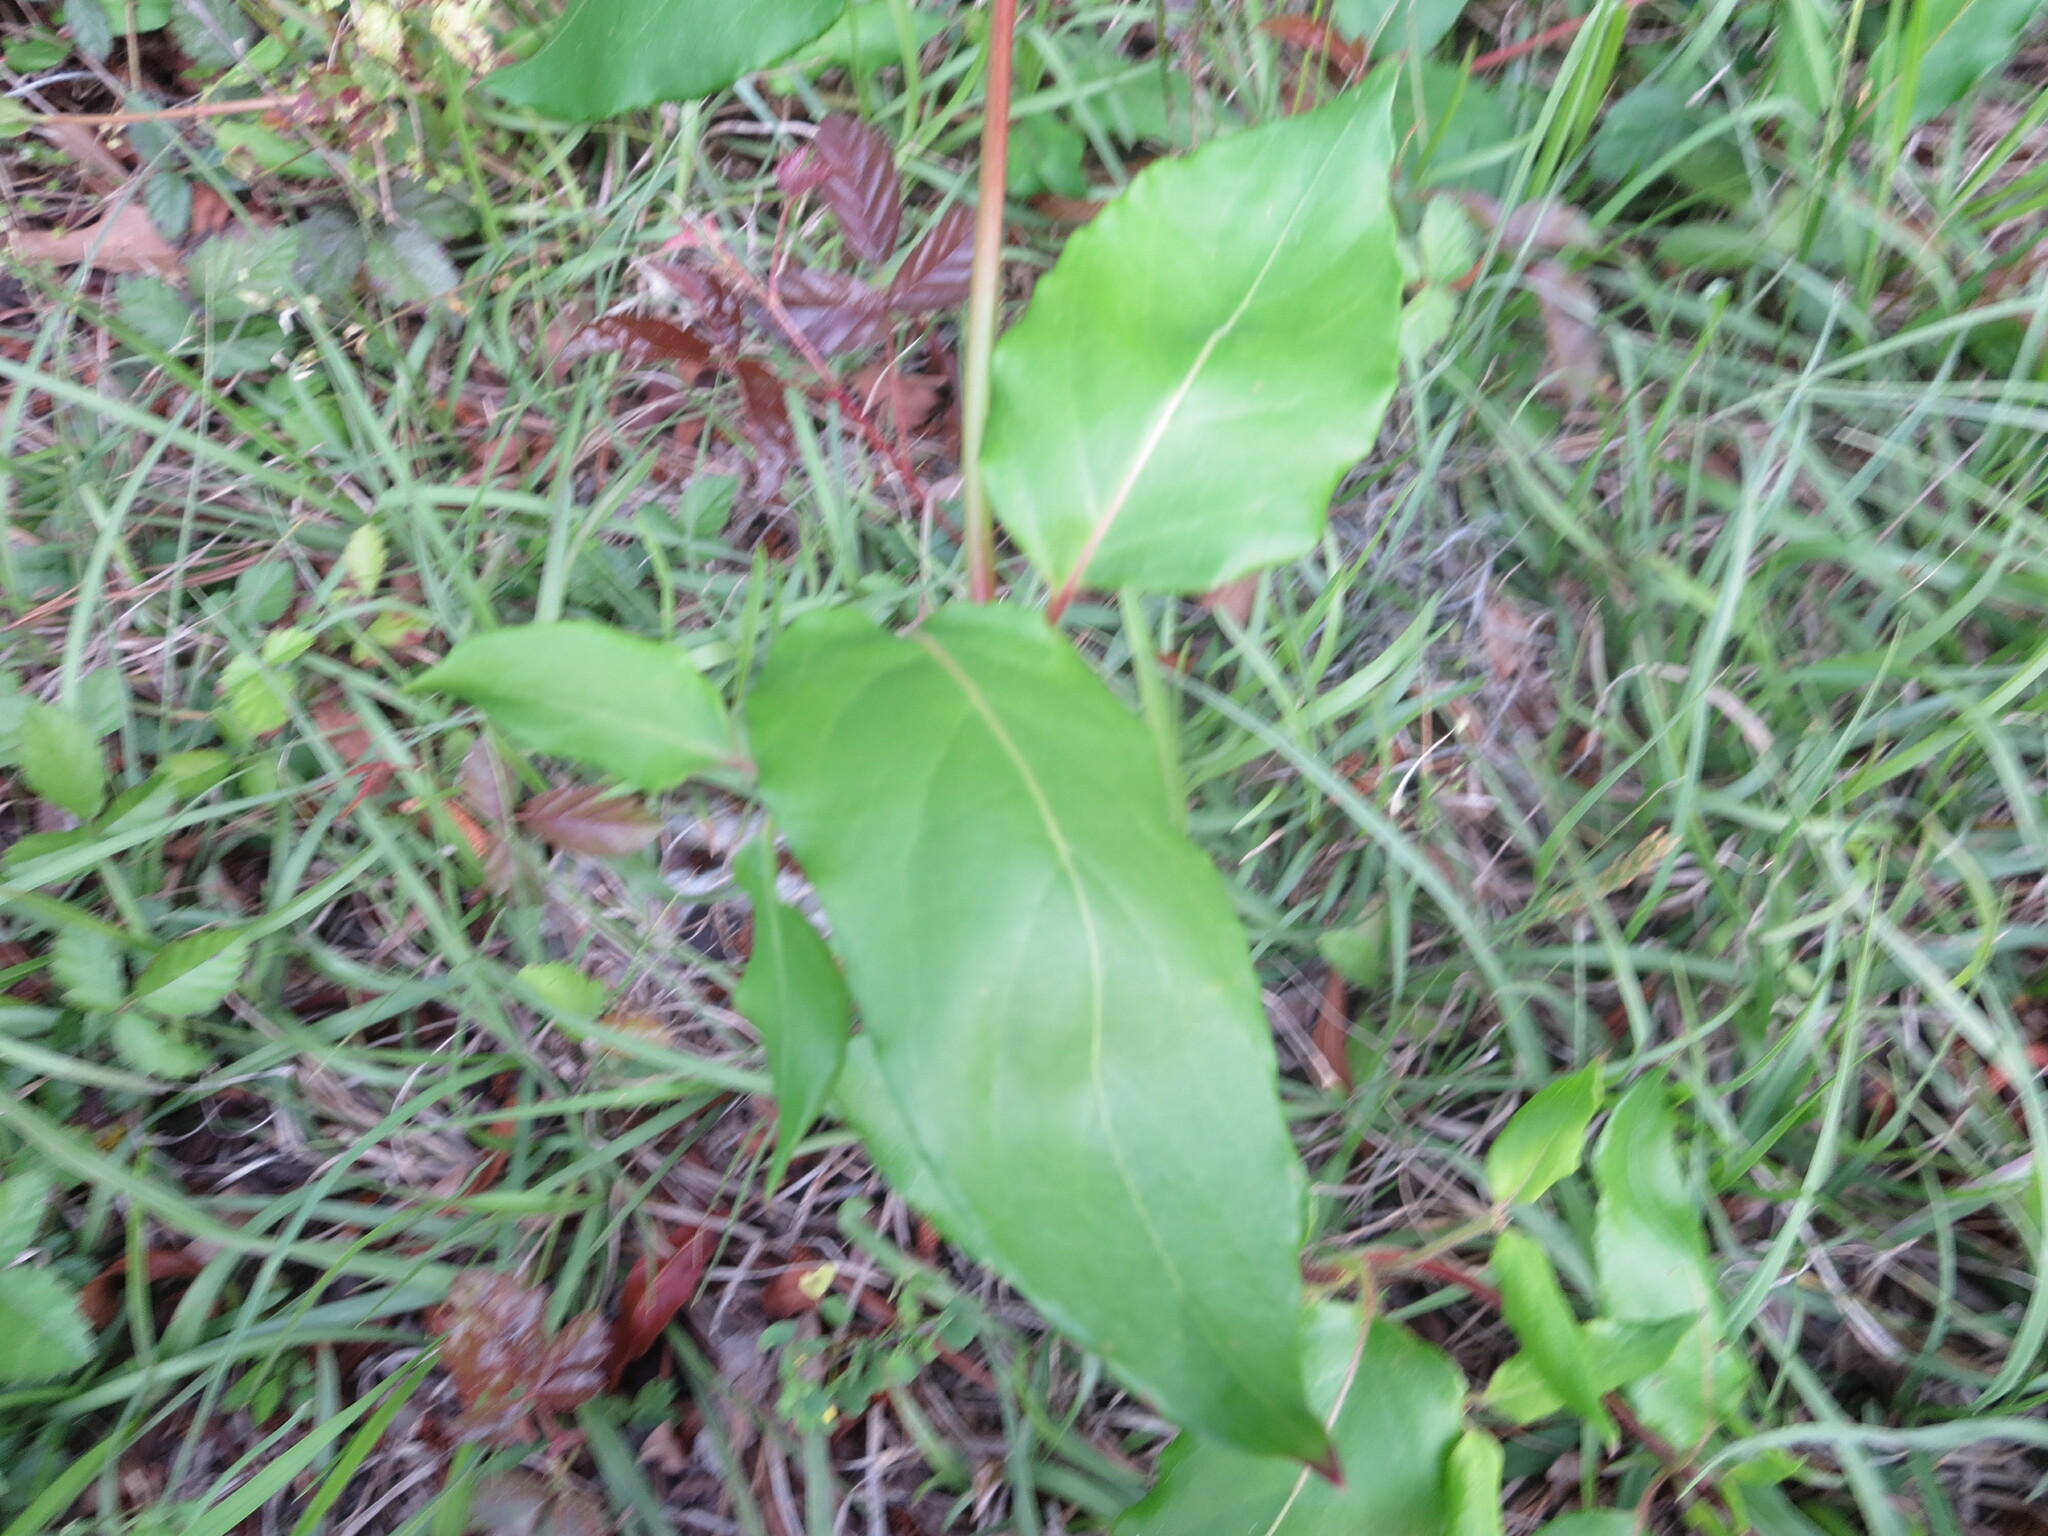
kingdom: Plantae
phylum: Tracheophyta
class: Magnoliopsida
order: Dipsacales
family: Caprifoliaceae
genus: Lonicera
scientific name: Lonicera japonica
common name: Japanese honeysuckle
